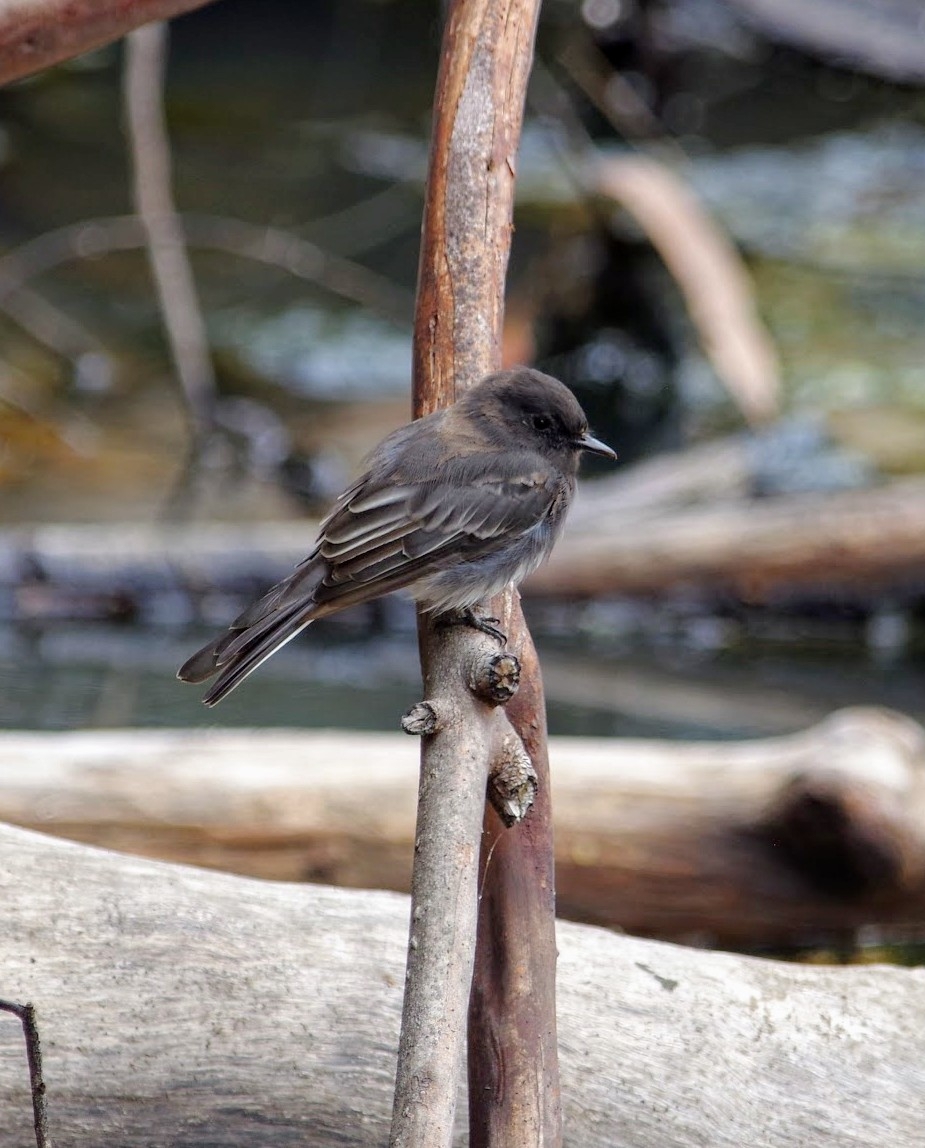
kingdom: Animalia
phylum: Chordata
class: Aves
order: Passeriformes
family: Tyrannidae
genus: Sayornis
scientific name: Sayornis nigricans
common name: Black phoebe
